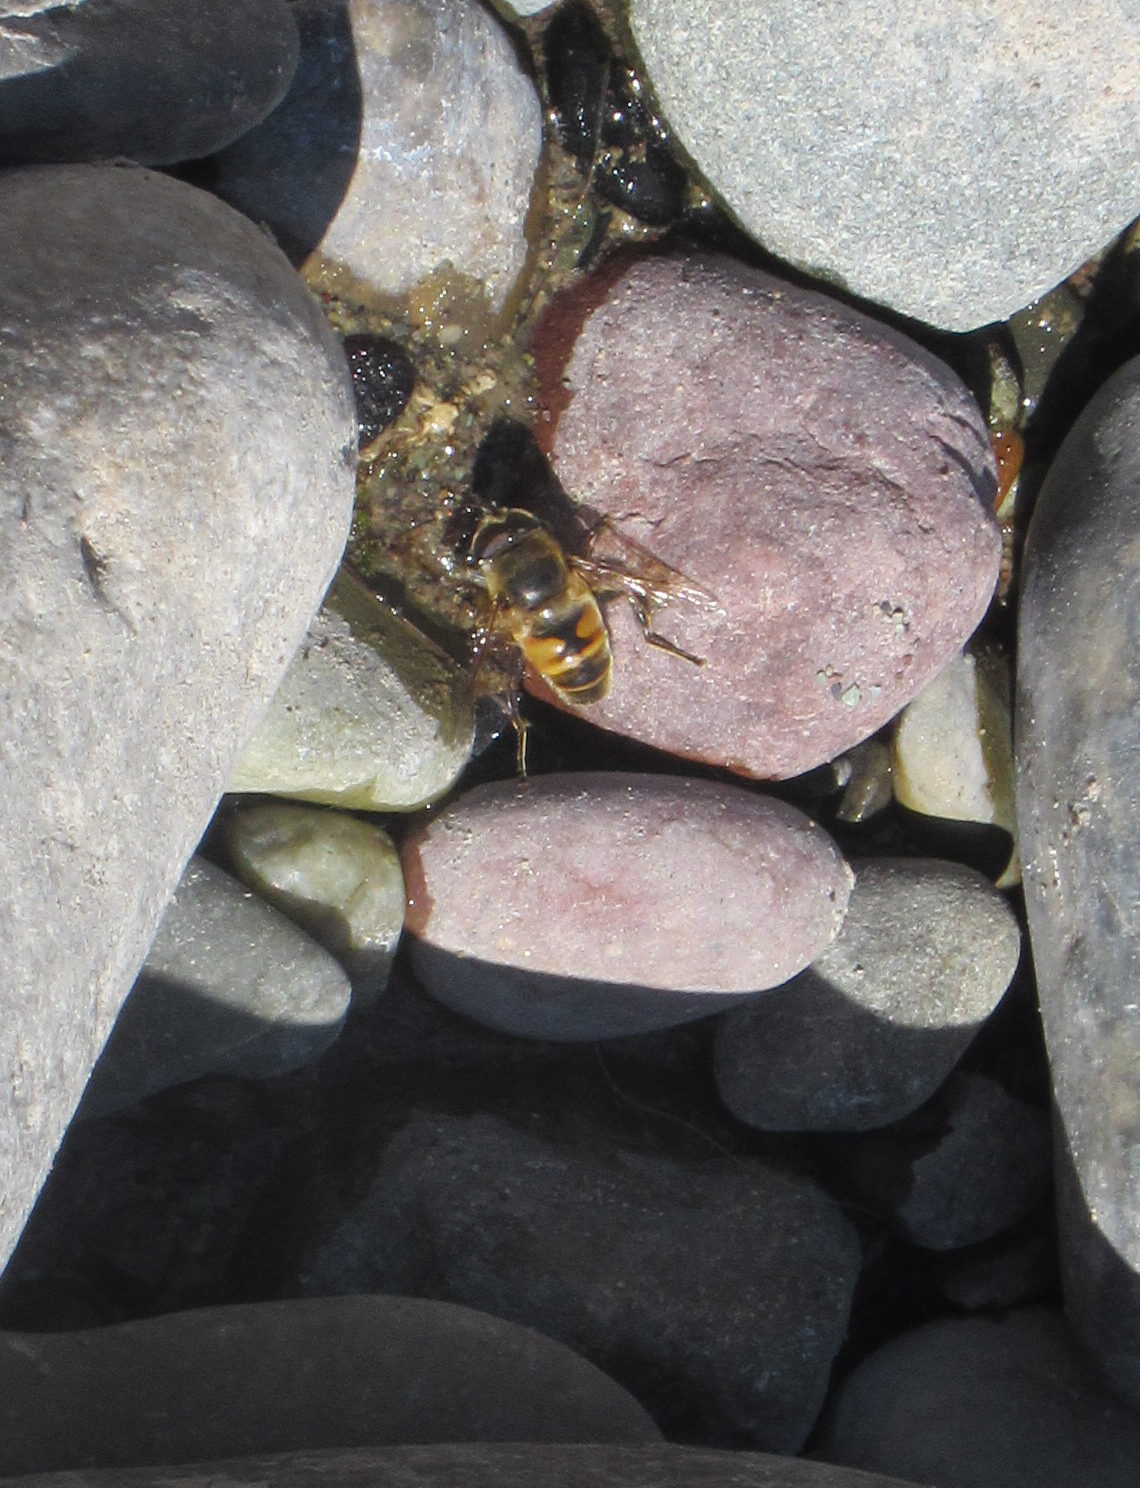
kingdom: Animalia
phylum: Arthropoda
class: Insecta
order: Diptera
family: Syrphidae
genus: Eristalis
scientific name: Eristalis tenax
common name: Drone fly
